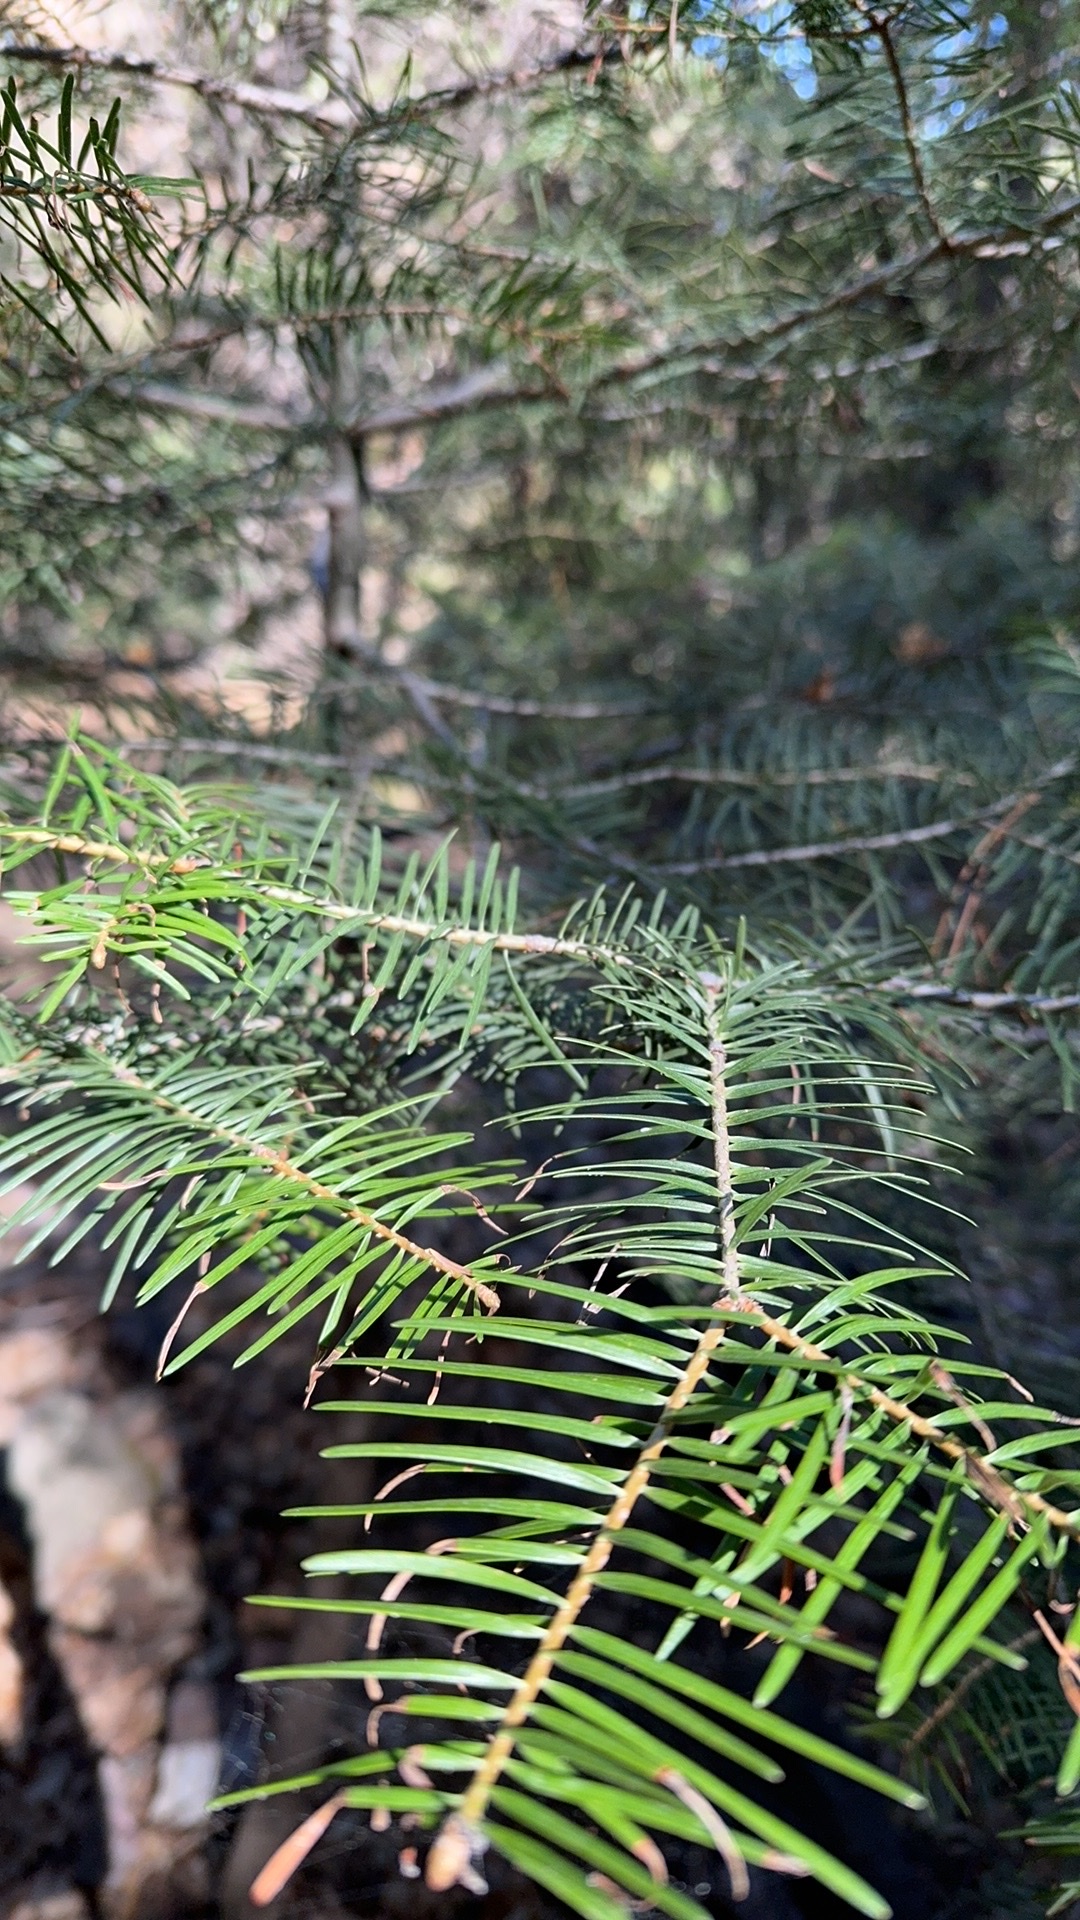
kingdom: Plantae
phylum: Tracheophyta
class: Pinopsida
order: Pinales
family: Pinaceae
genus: Abies
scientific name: Abies concolor
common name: Colorado fir
